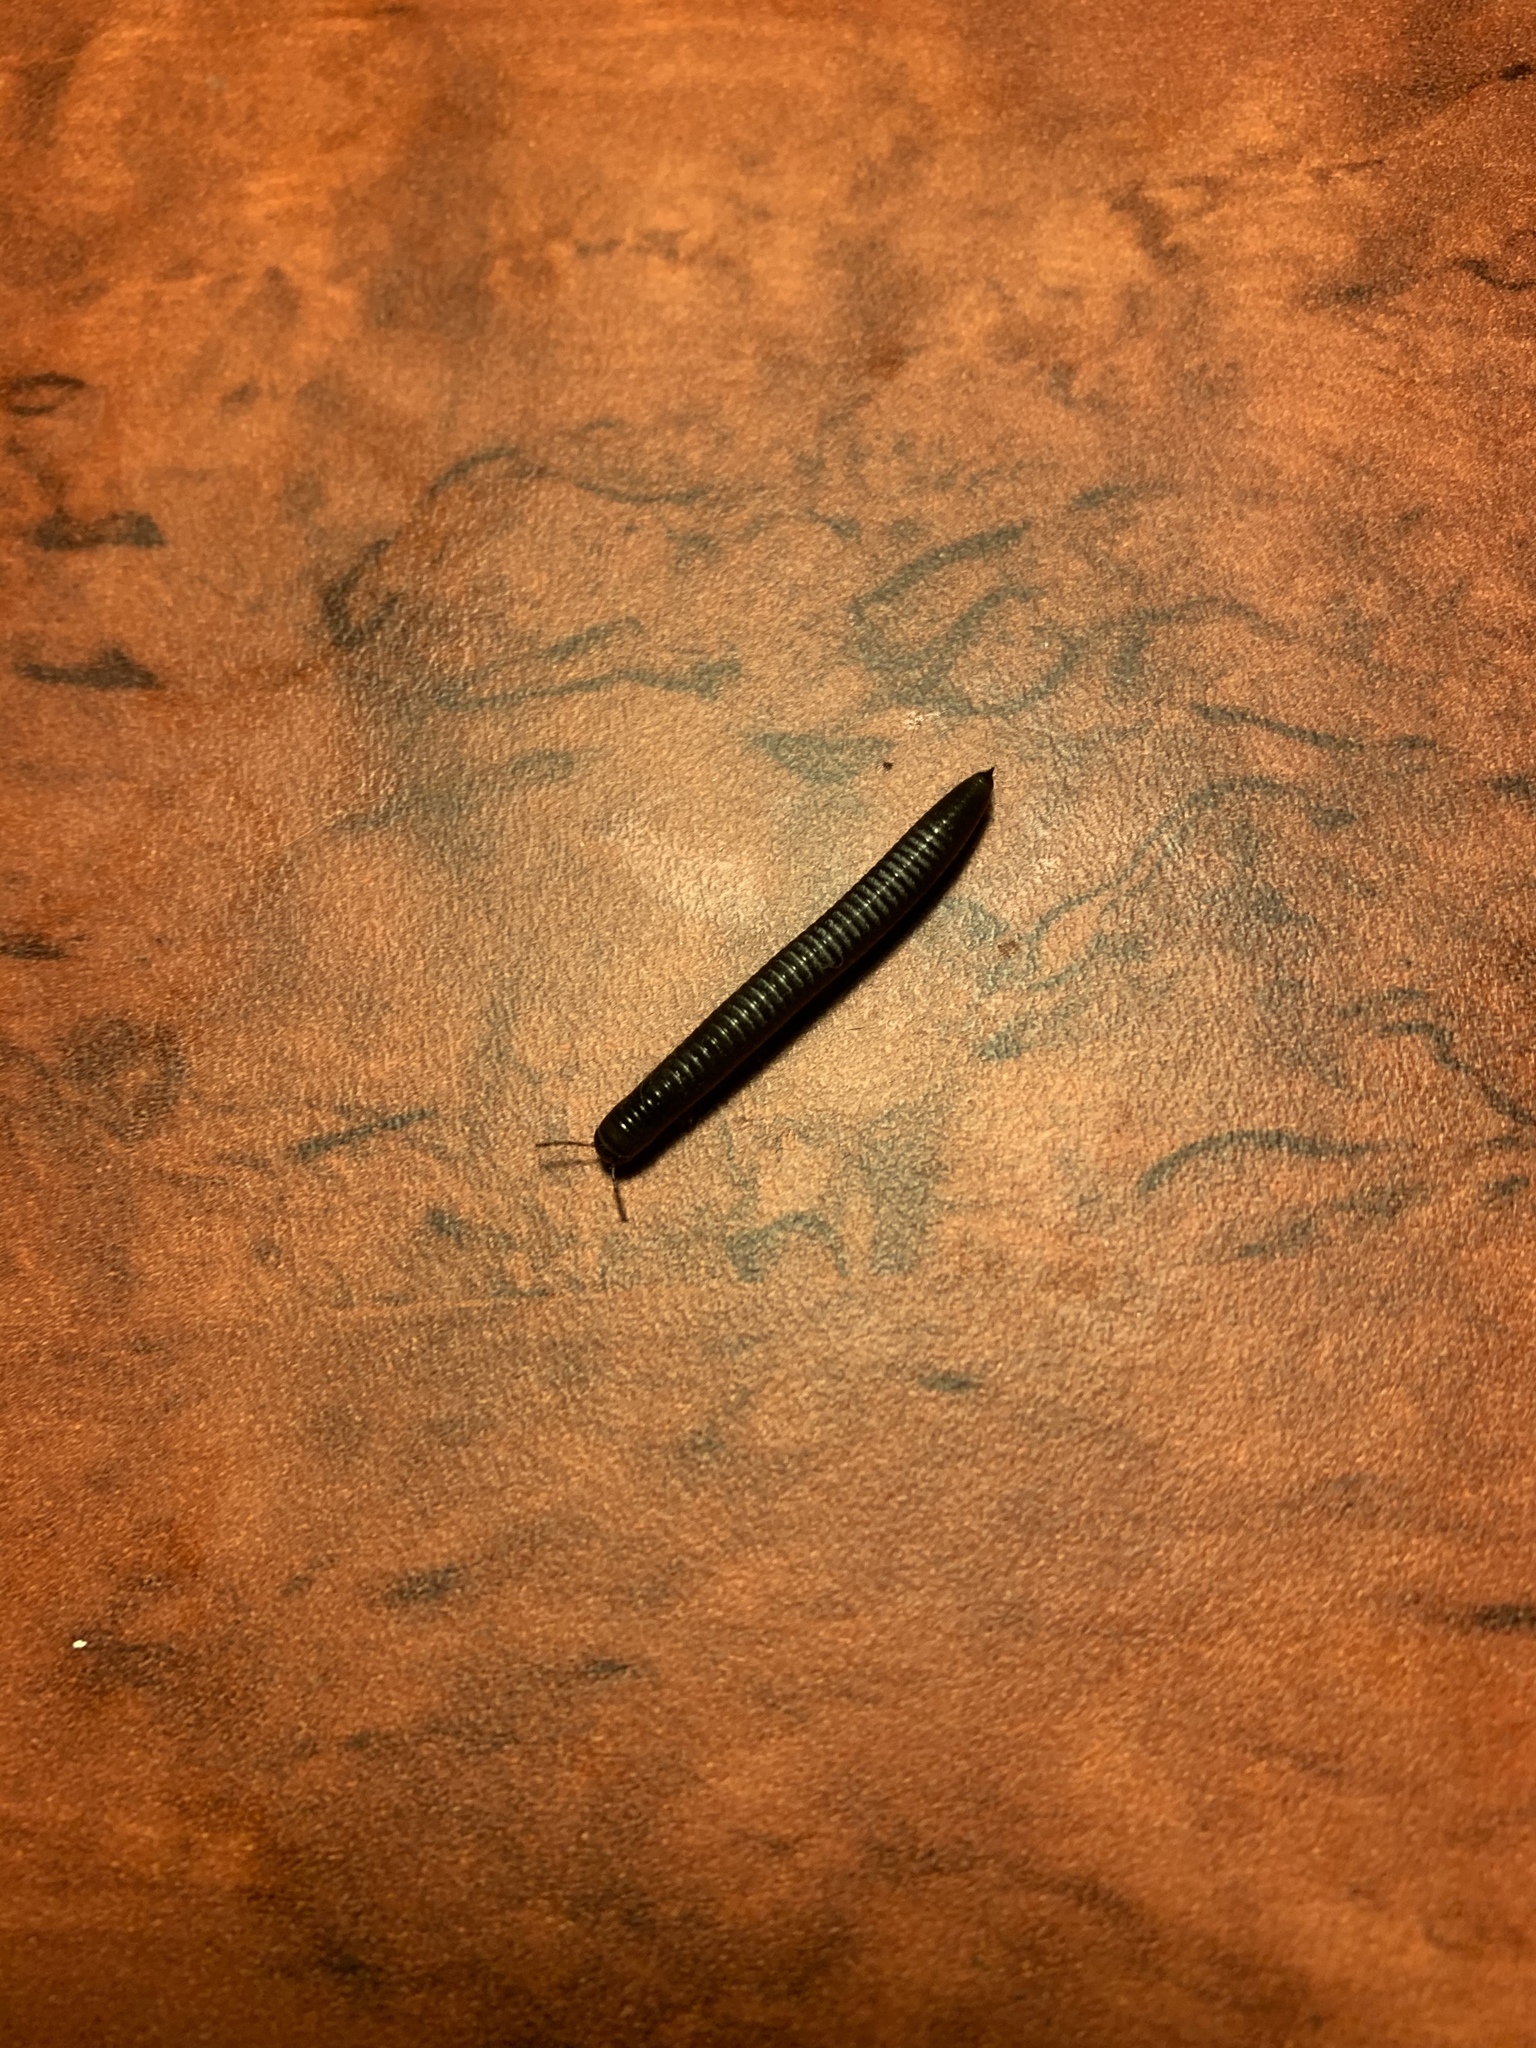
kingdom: Animalia
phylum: Arthropoda
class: Diplopoda
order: Julida
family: Julidae
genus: Ommatoiulus
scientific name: Ommatoiulus moreleti
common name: Portuguese millipede
